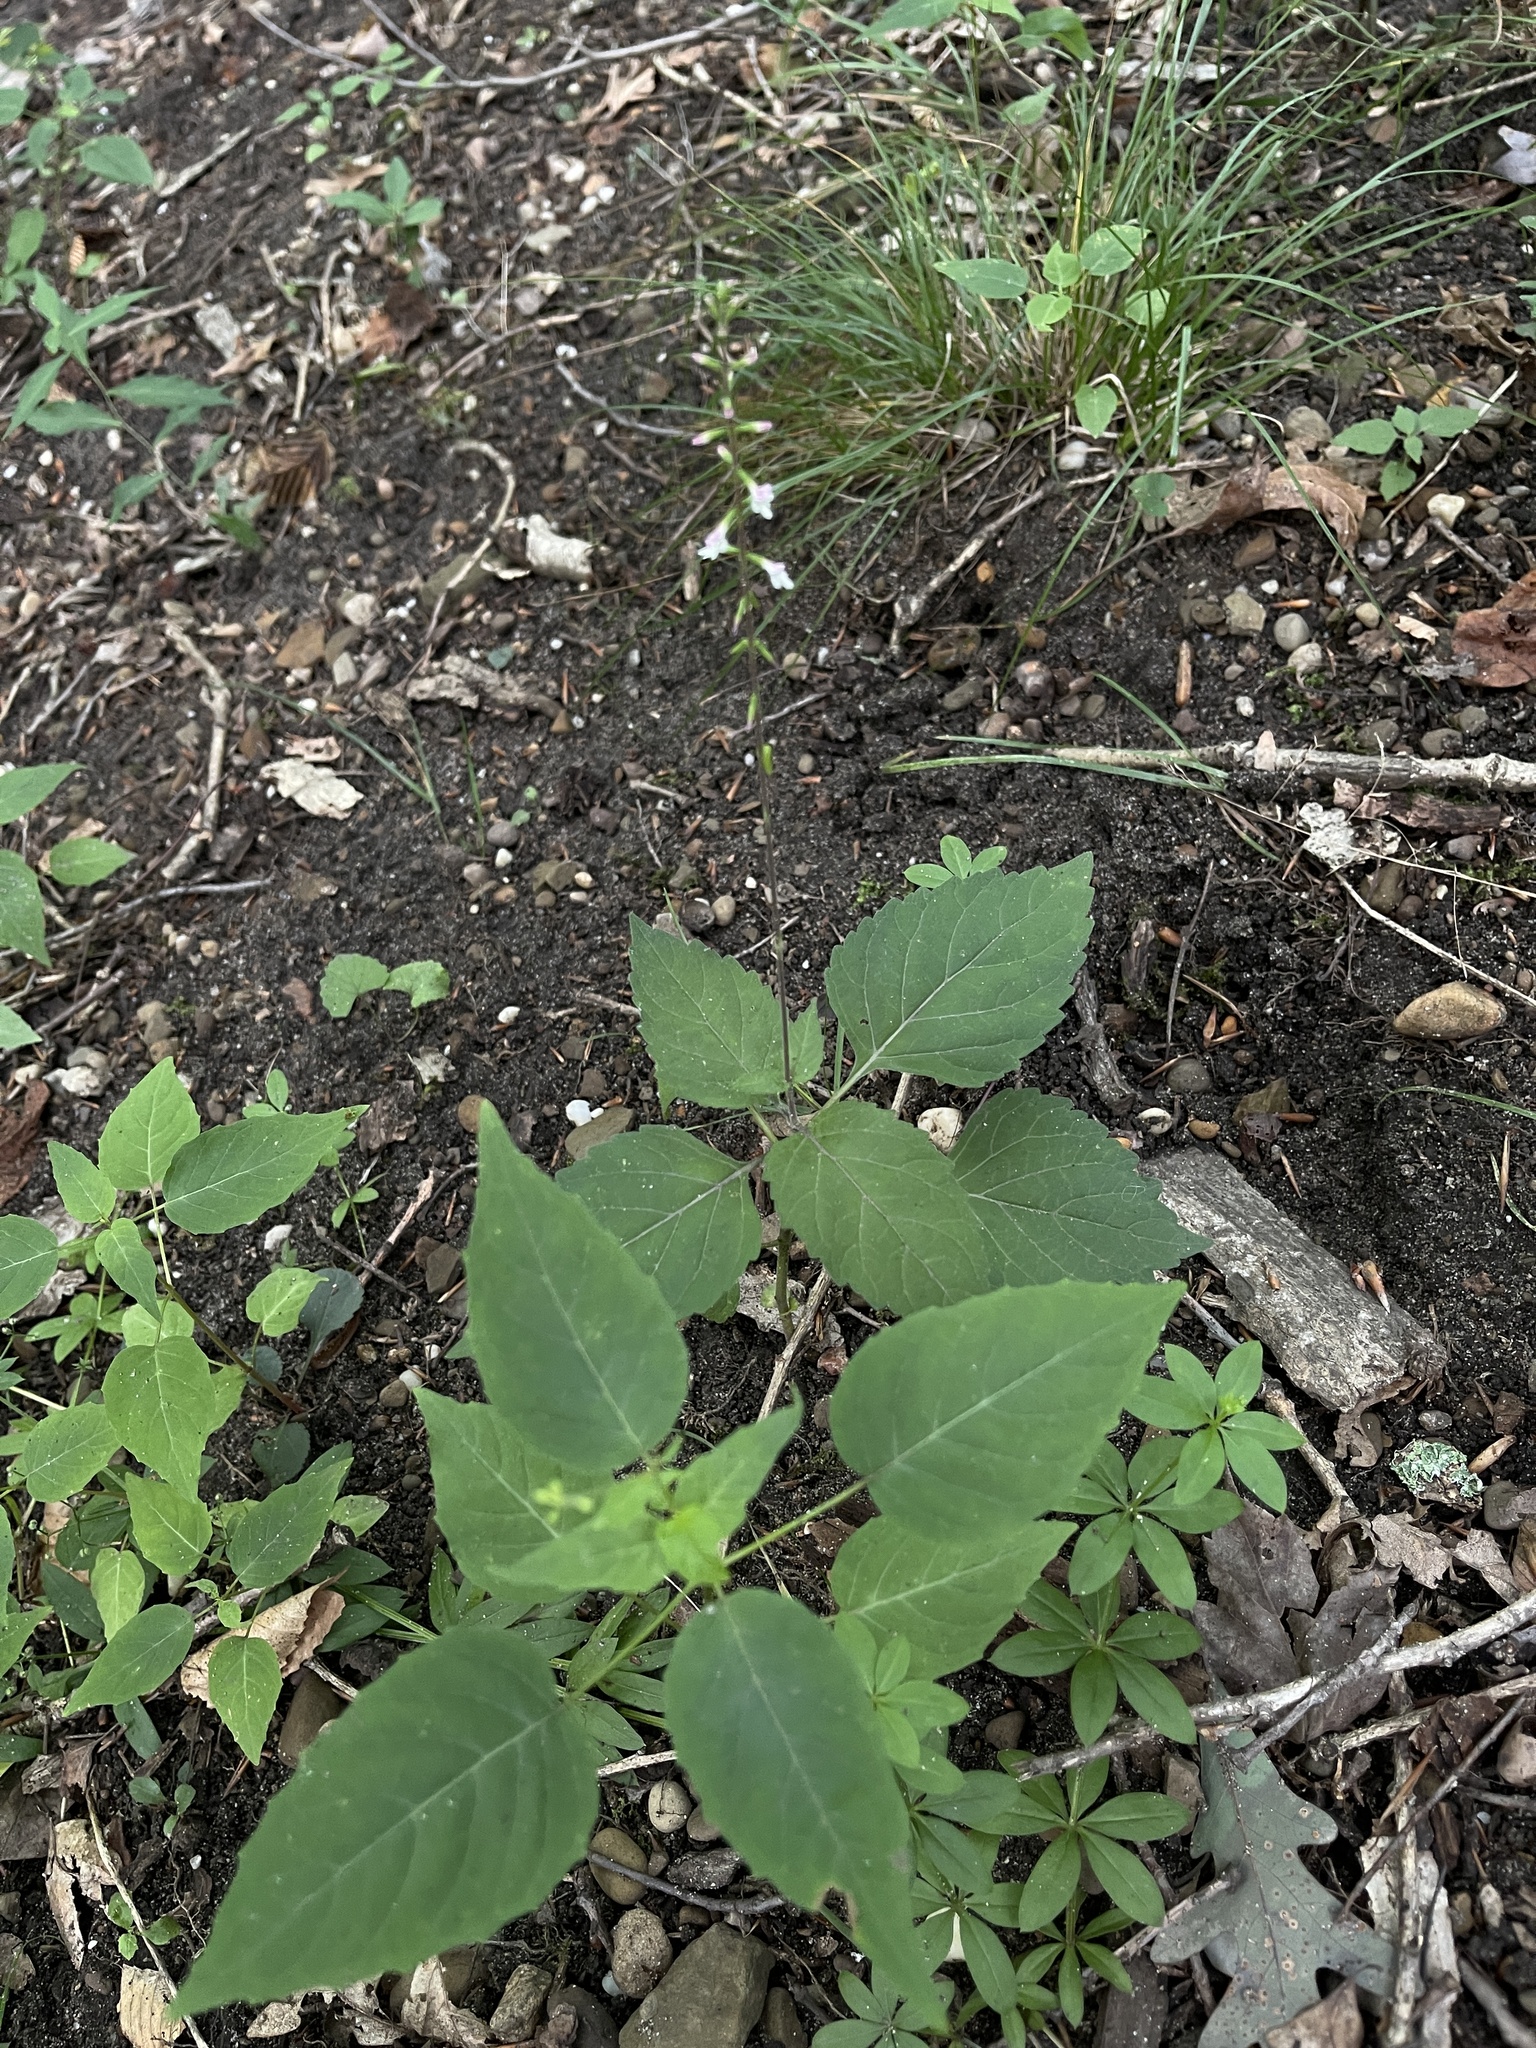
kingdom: Plantae
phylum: Tracheophyta
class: Magnoliopsida
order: Lamiales
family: Phrymaceae
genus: Phryma
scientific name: Phryma leptostachya
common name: American lopseed
